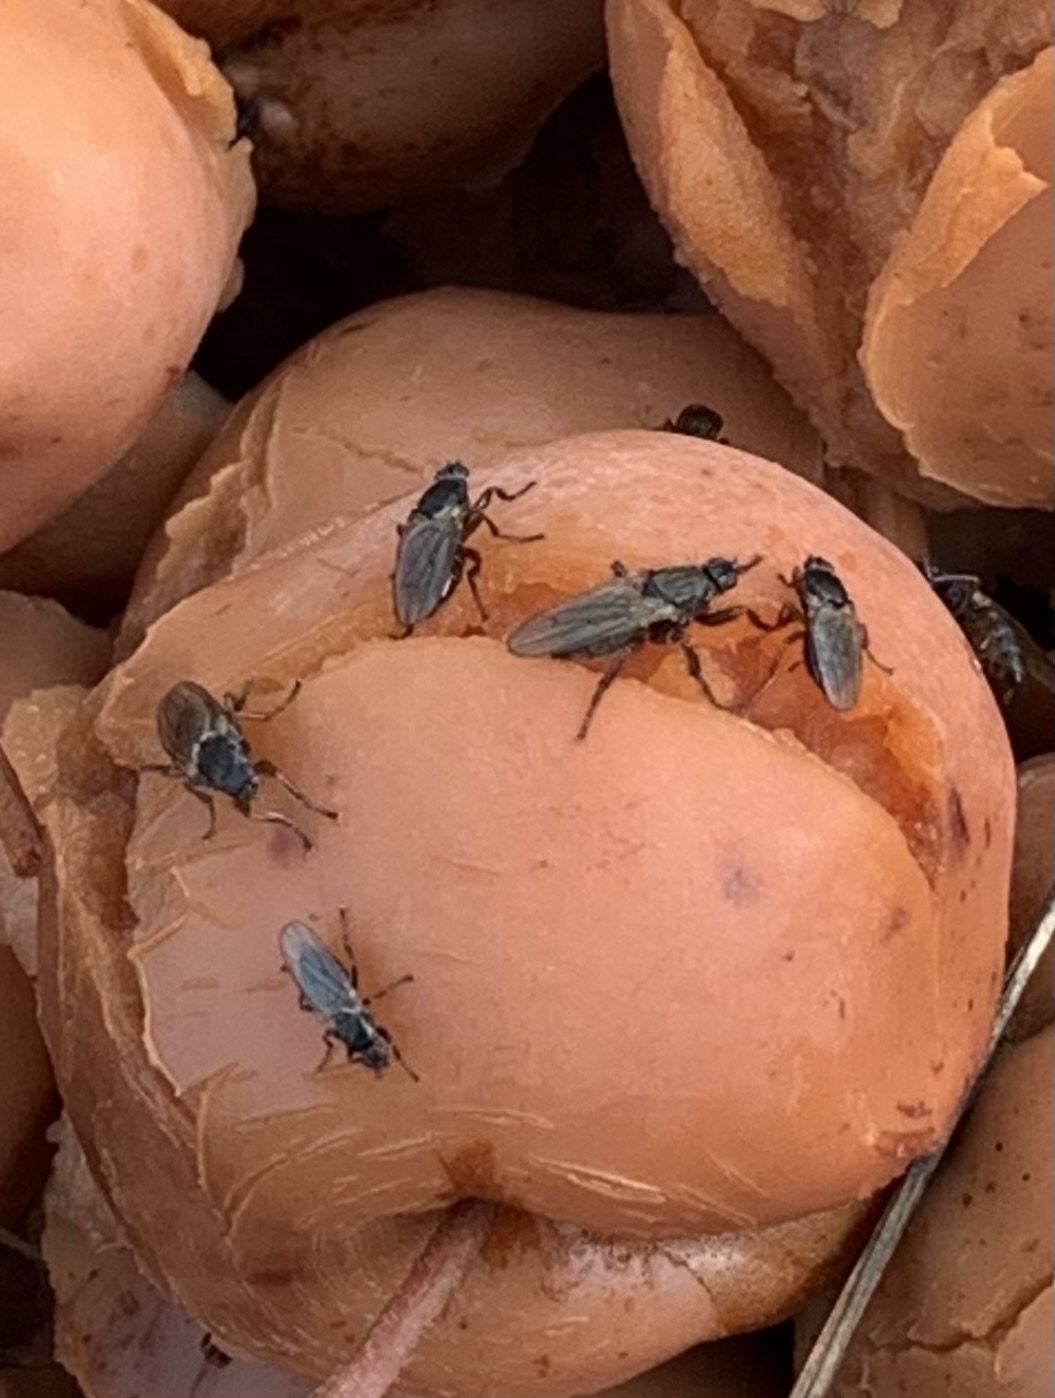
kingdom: Animalia
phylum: Arthropoda
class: Insecta
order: Diptera
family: Coelopidae
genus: Coelopa
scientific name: Coelopa frigida
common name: Kelp fly
